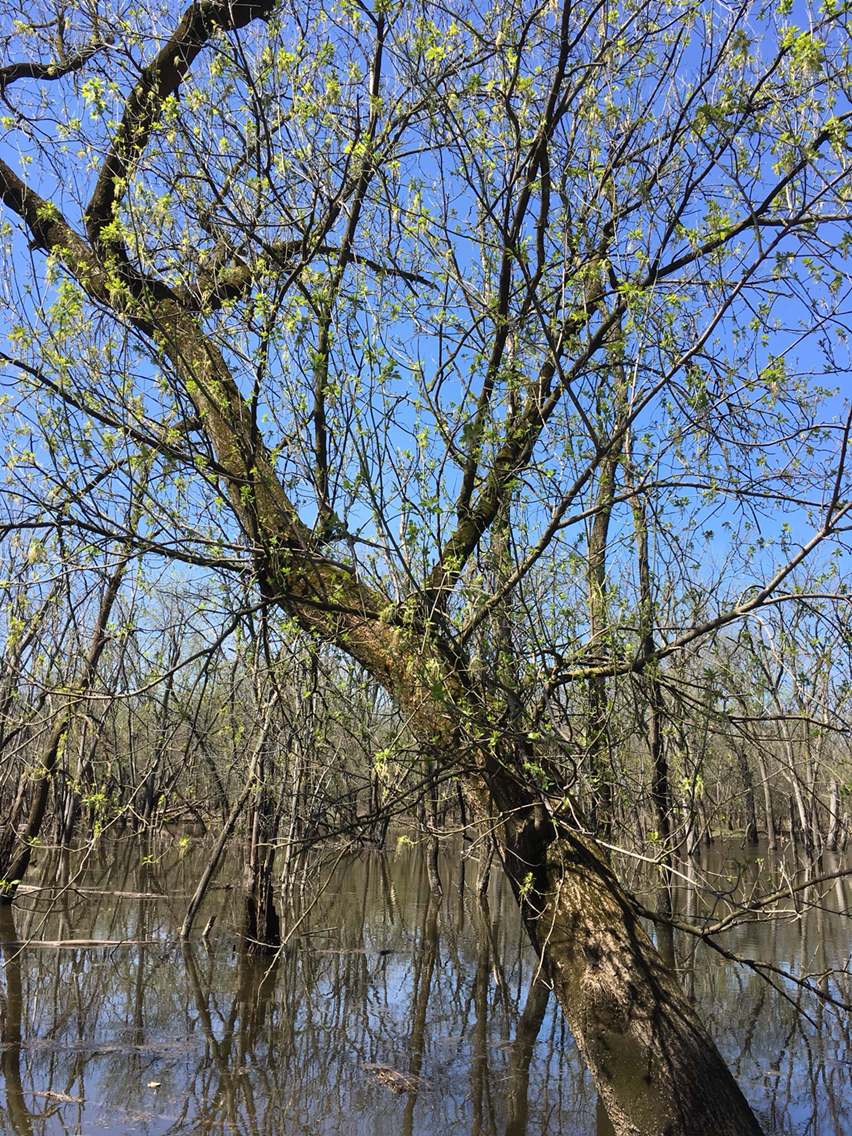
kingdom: Plantae
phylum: Tracheophyta
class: Magnoliopsida
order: Sapindales
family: Sapindaceae
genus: Acer
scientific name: Acer negundo
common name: Ashleaf maple
